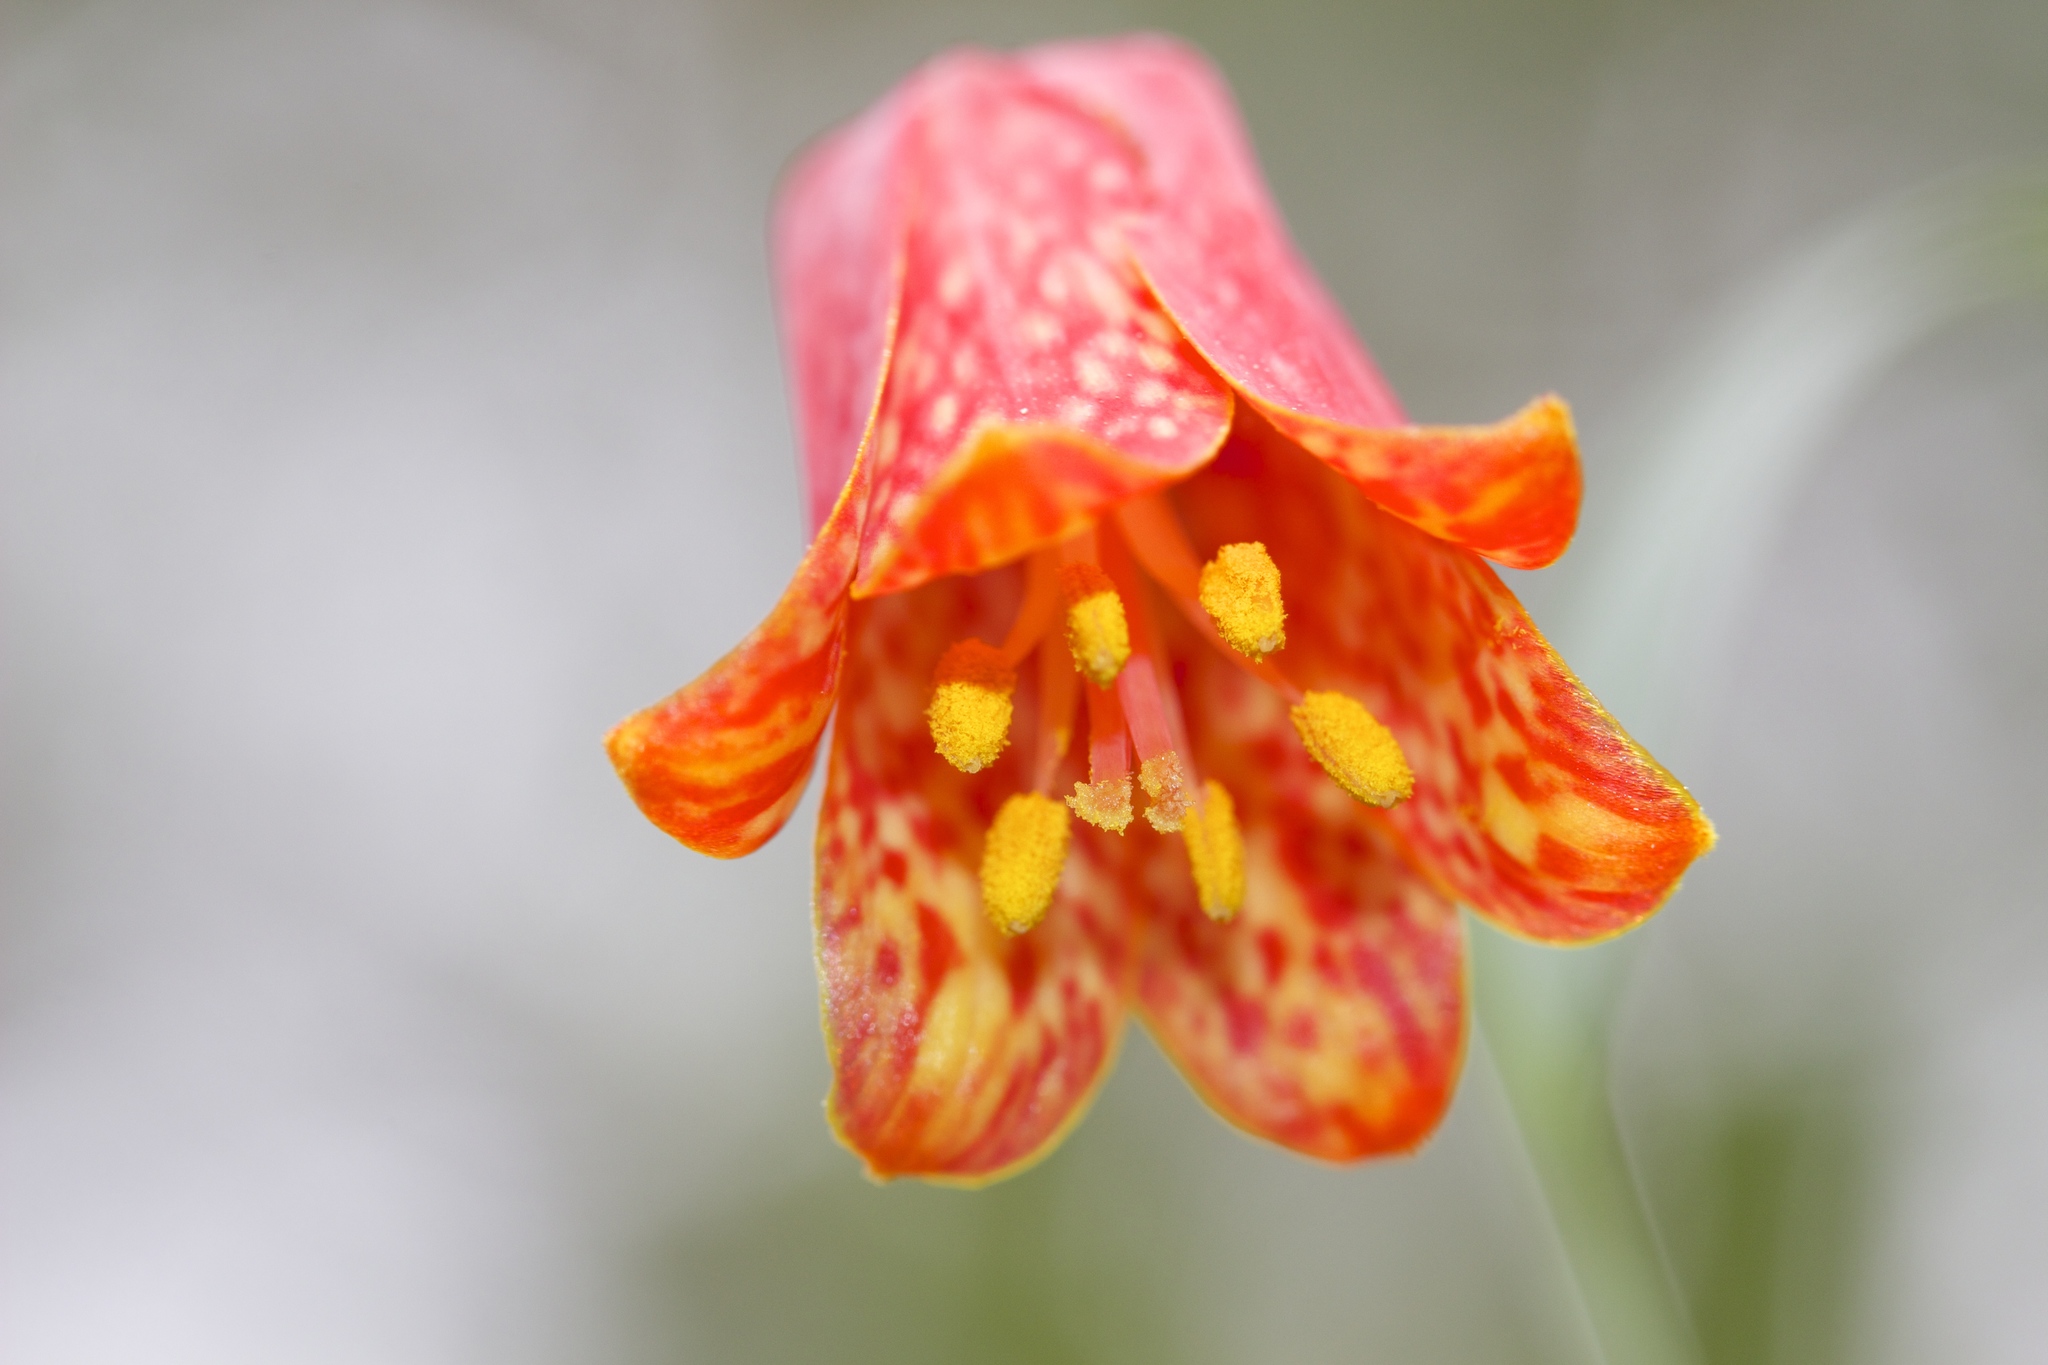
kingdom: Plantae
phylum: Tracheophyta
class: Liliopsida
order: Liliales
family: Liliaceae
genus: Fritillaria
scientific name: Fritillaria recurva
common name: Scarlet fritillary
